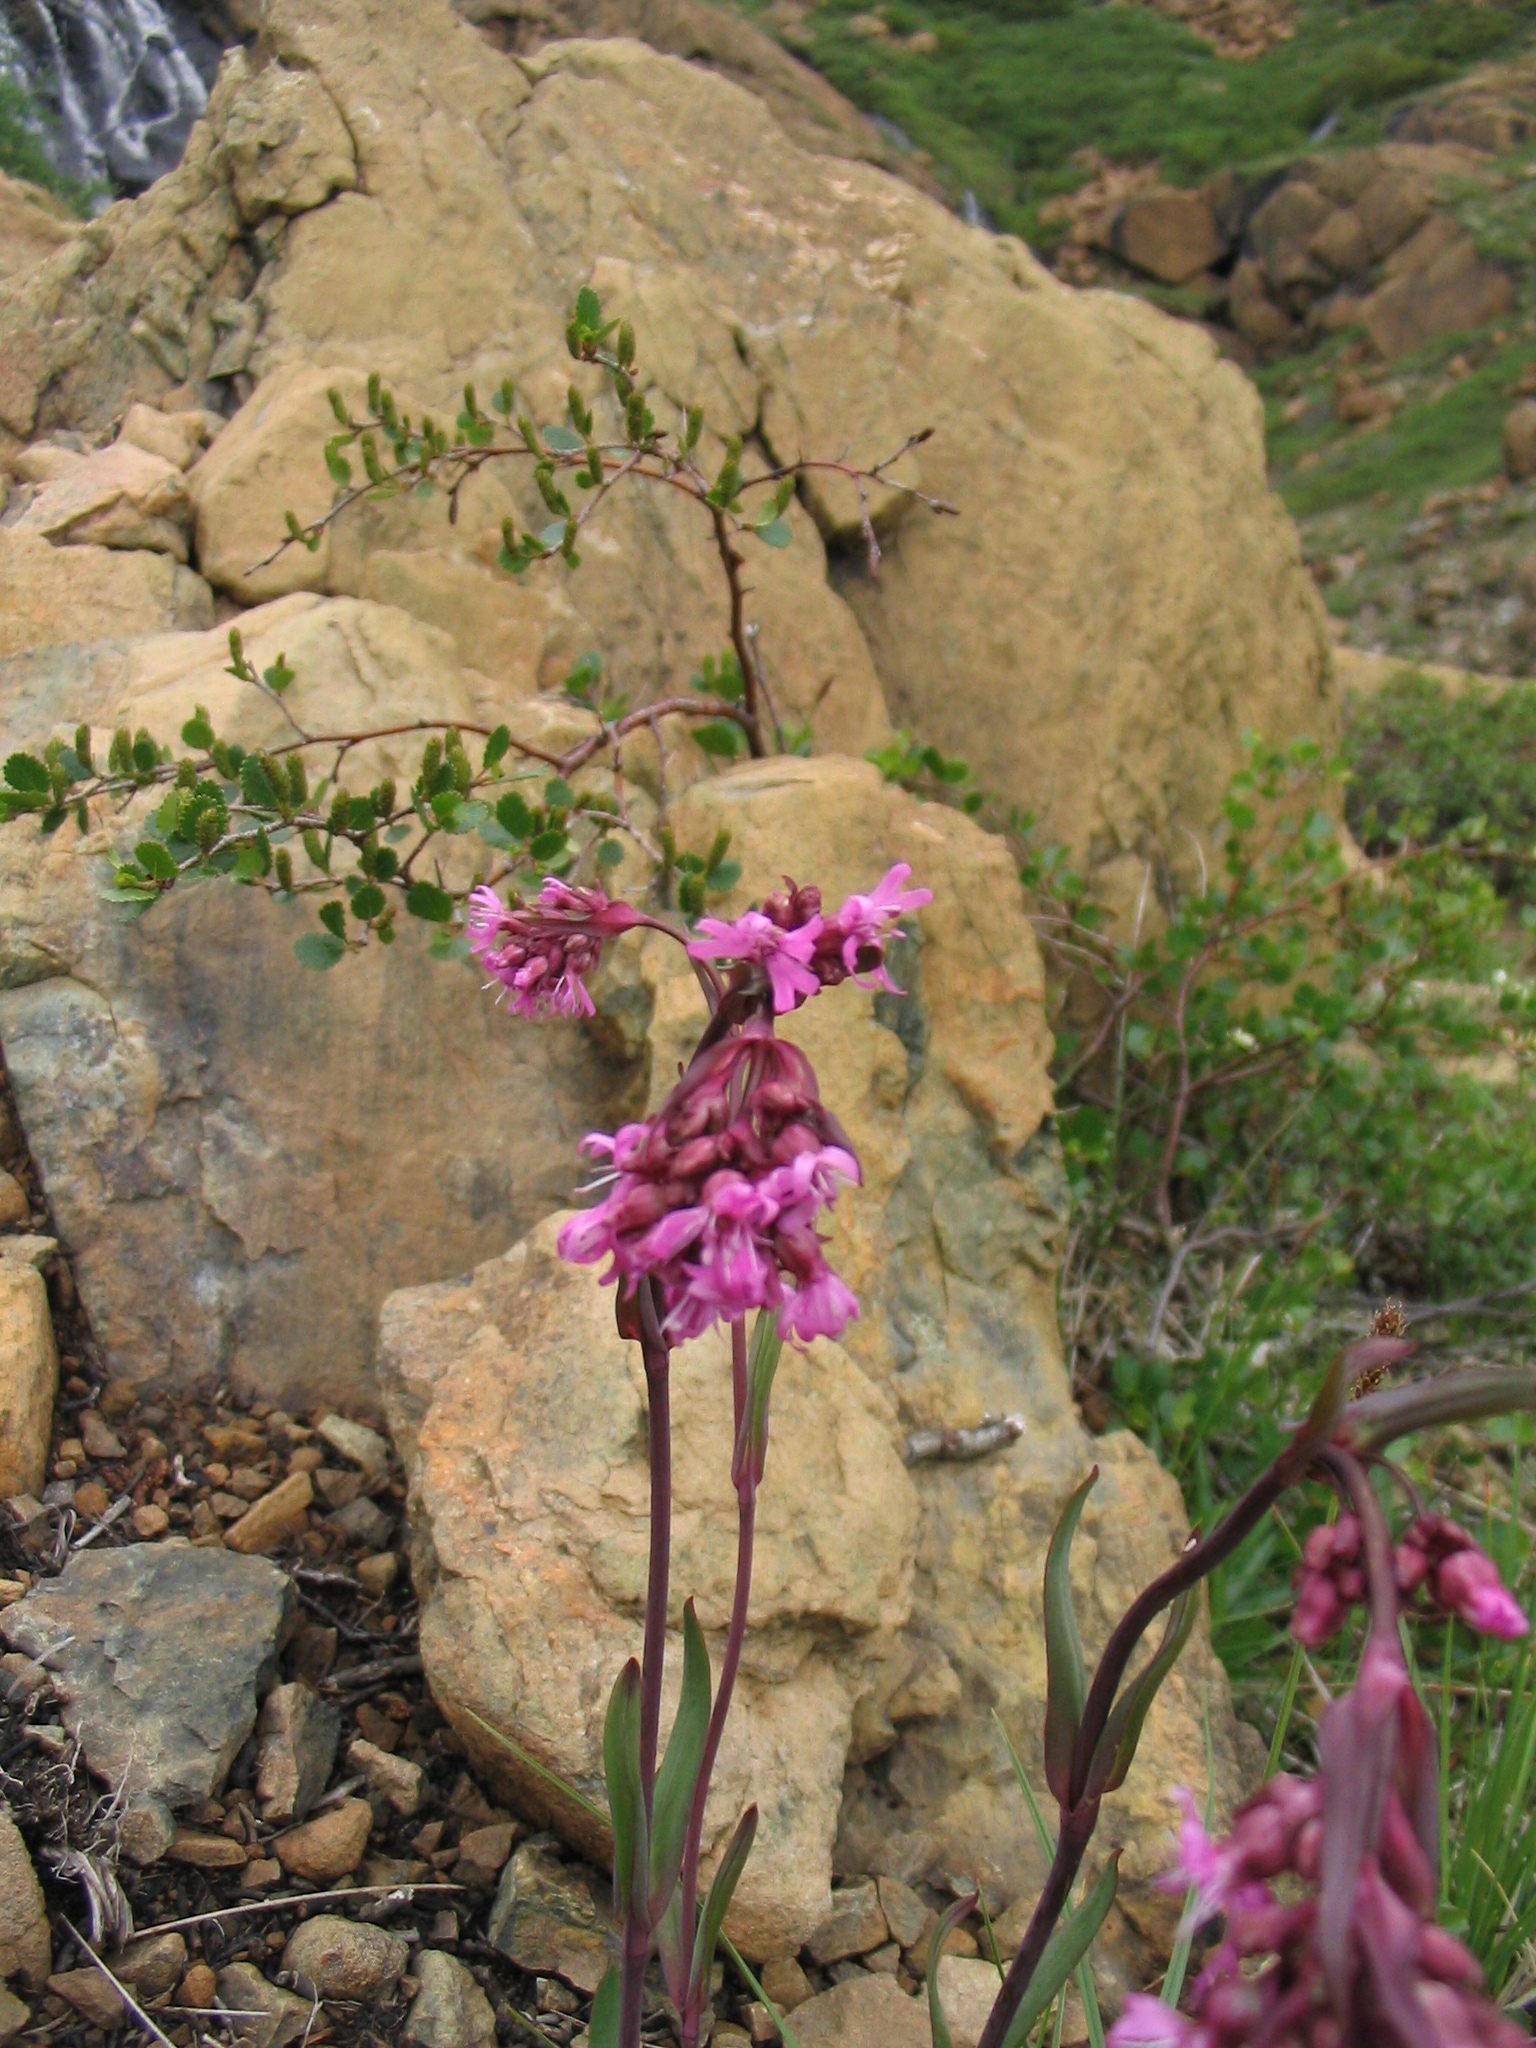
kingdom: Plantae
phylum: Tracheophyta
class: Magnoliopsida
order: Caryophyllales
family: Caryophyllaceae
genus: Viscaria
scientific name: Viscaria alpina
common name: Alpine campion
